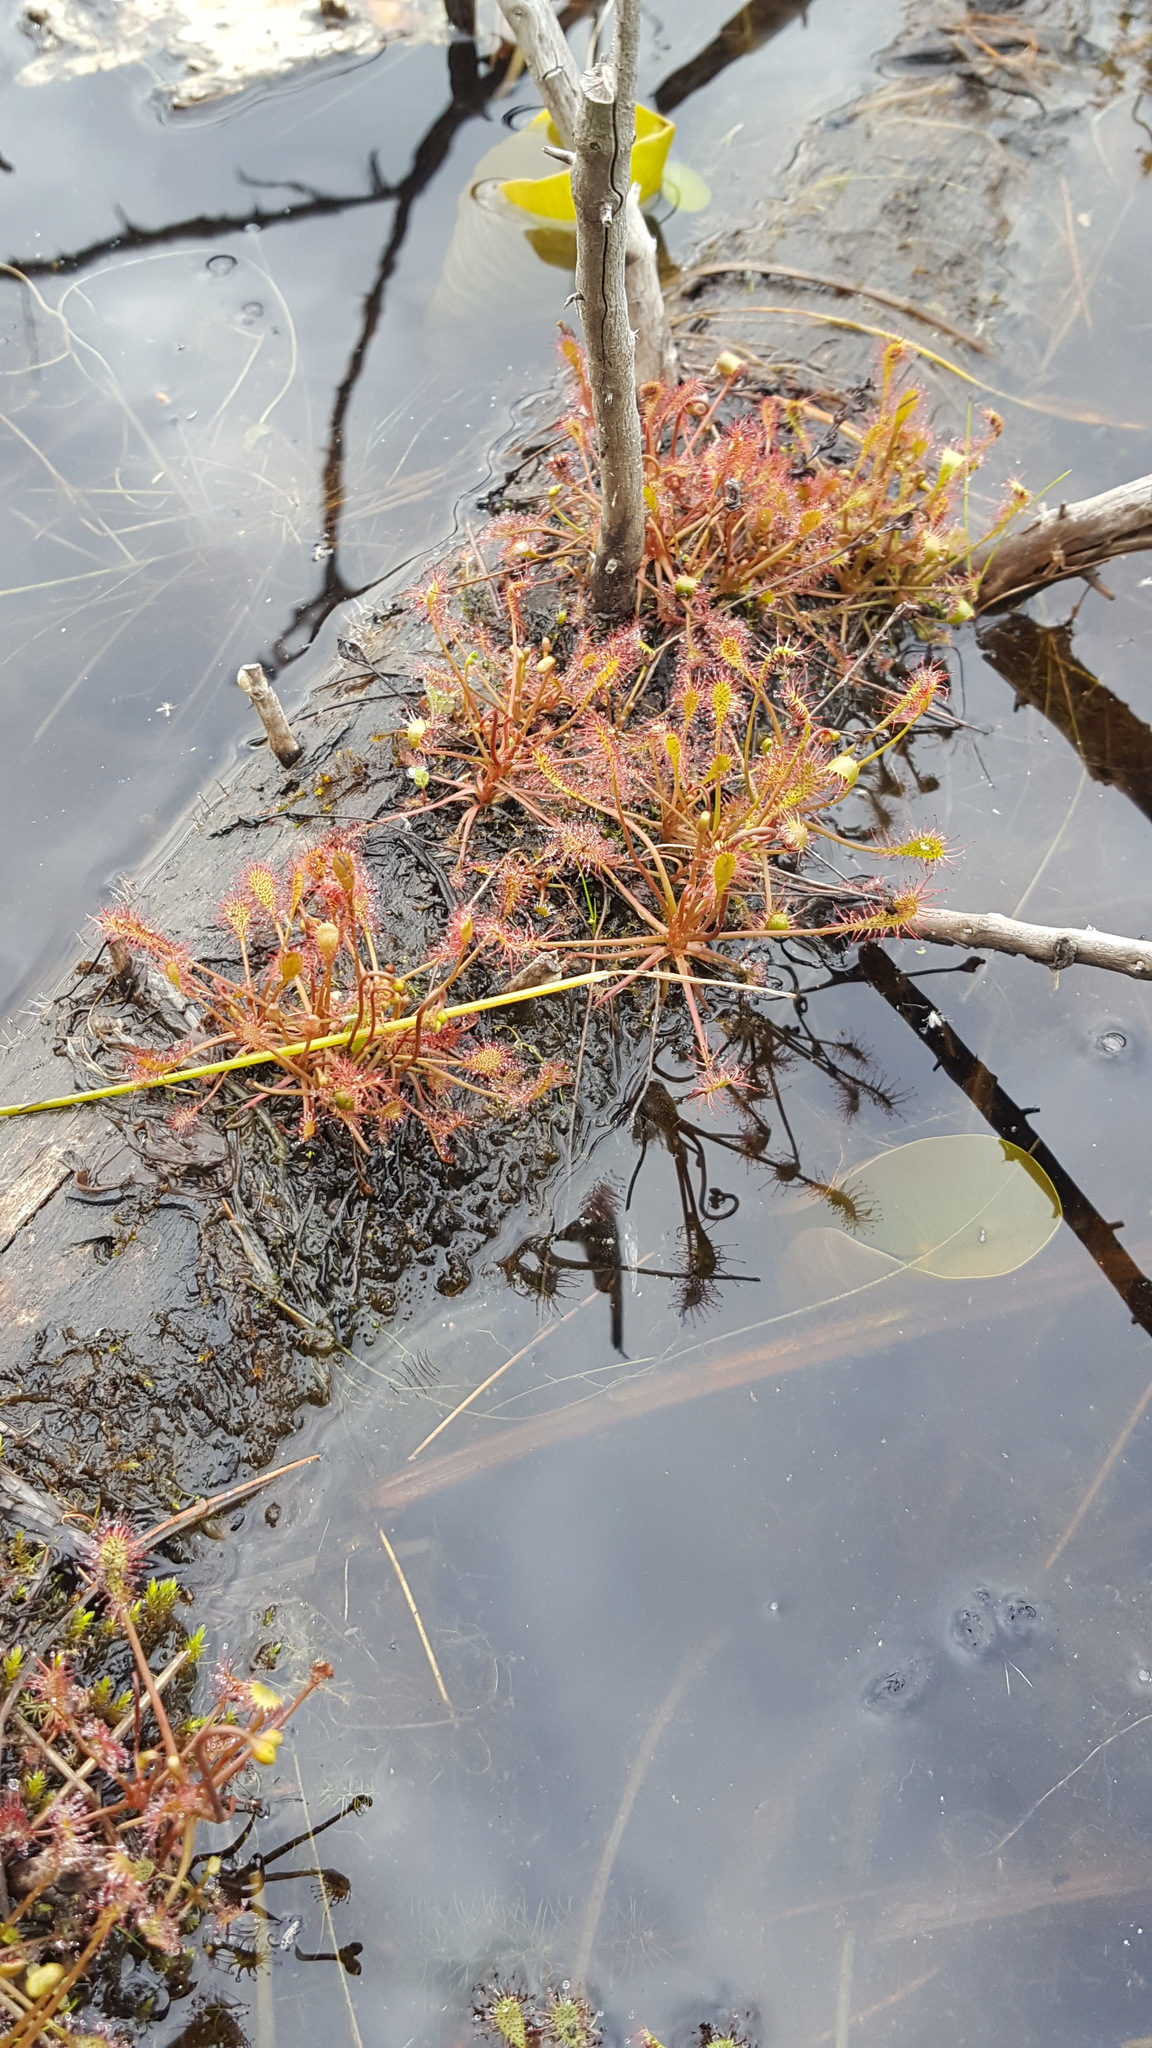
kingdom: Plantae
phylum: Tracheophyta
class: Magnoliopsida
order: Caryophyllales
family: Droseraceae
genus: Drosera
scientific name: Drosera intermedia
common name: Oblong-leaved sundew
